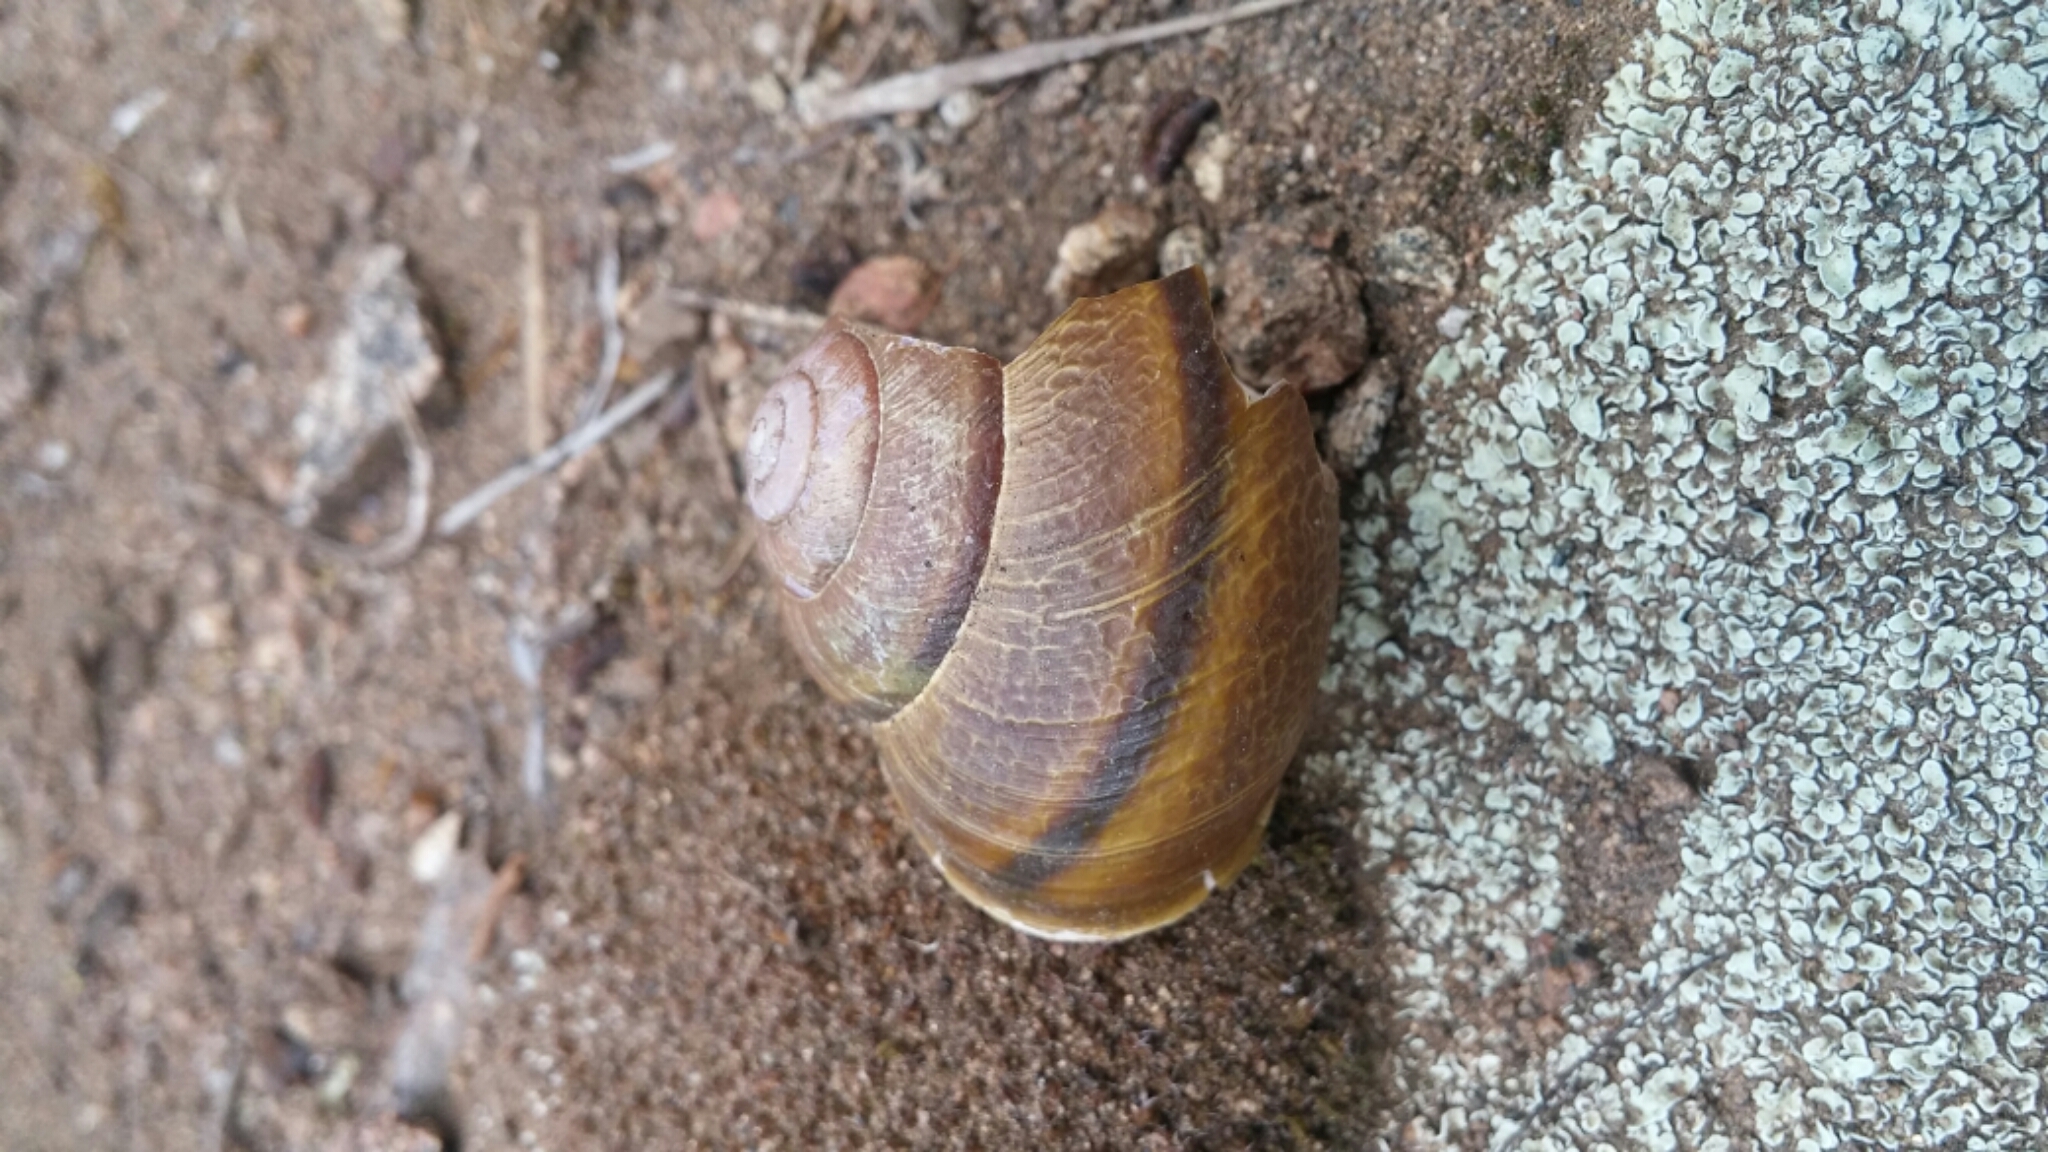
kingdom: Animalia
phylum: Mollusca
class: Gastropoda
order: Stylommatophora
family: Xanthonychidae
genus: Helminthoglypta
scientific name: Helminthoglypta tudiculata
